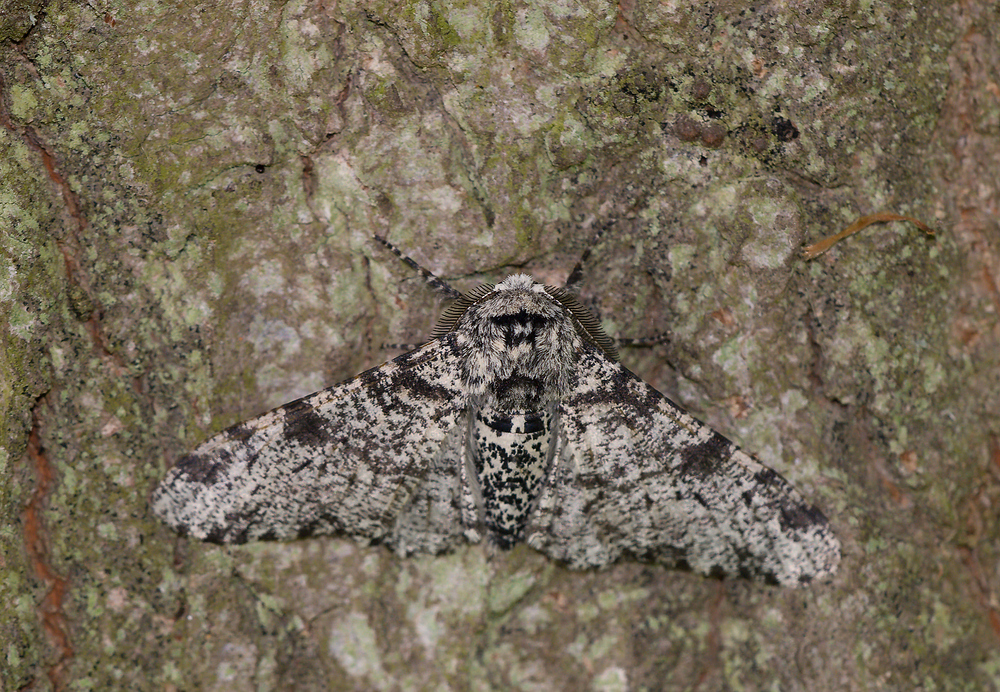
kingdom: Animalia
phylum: Arthropoda
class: Insecta
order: Lepidoptera
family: Geometridae
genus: Biston
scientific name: Biston betularia
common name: Peppered moth
